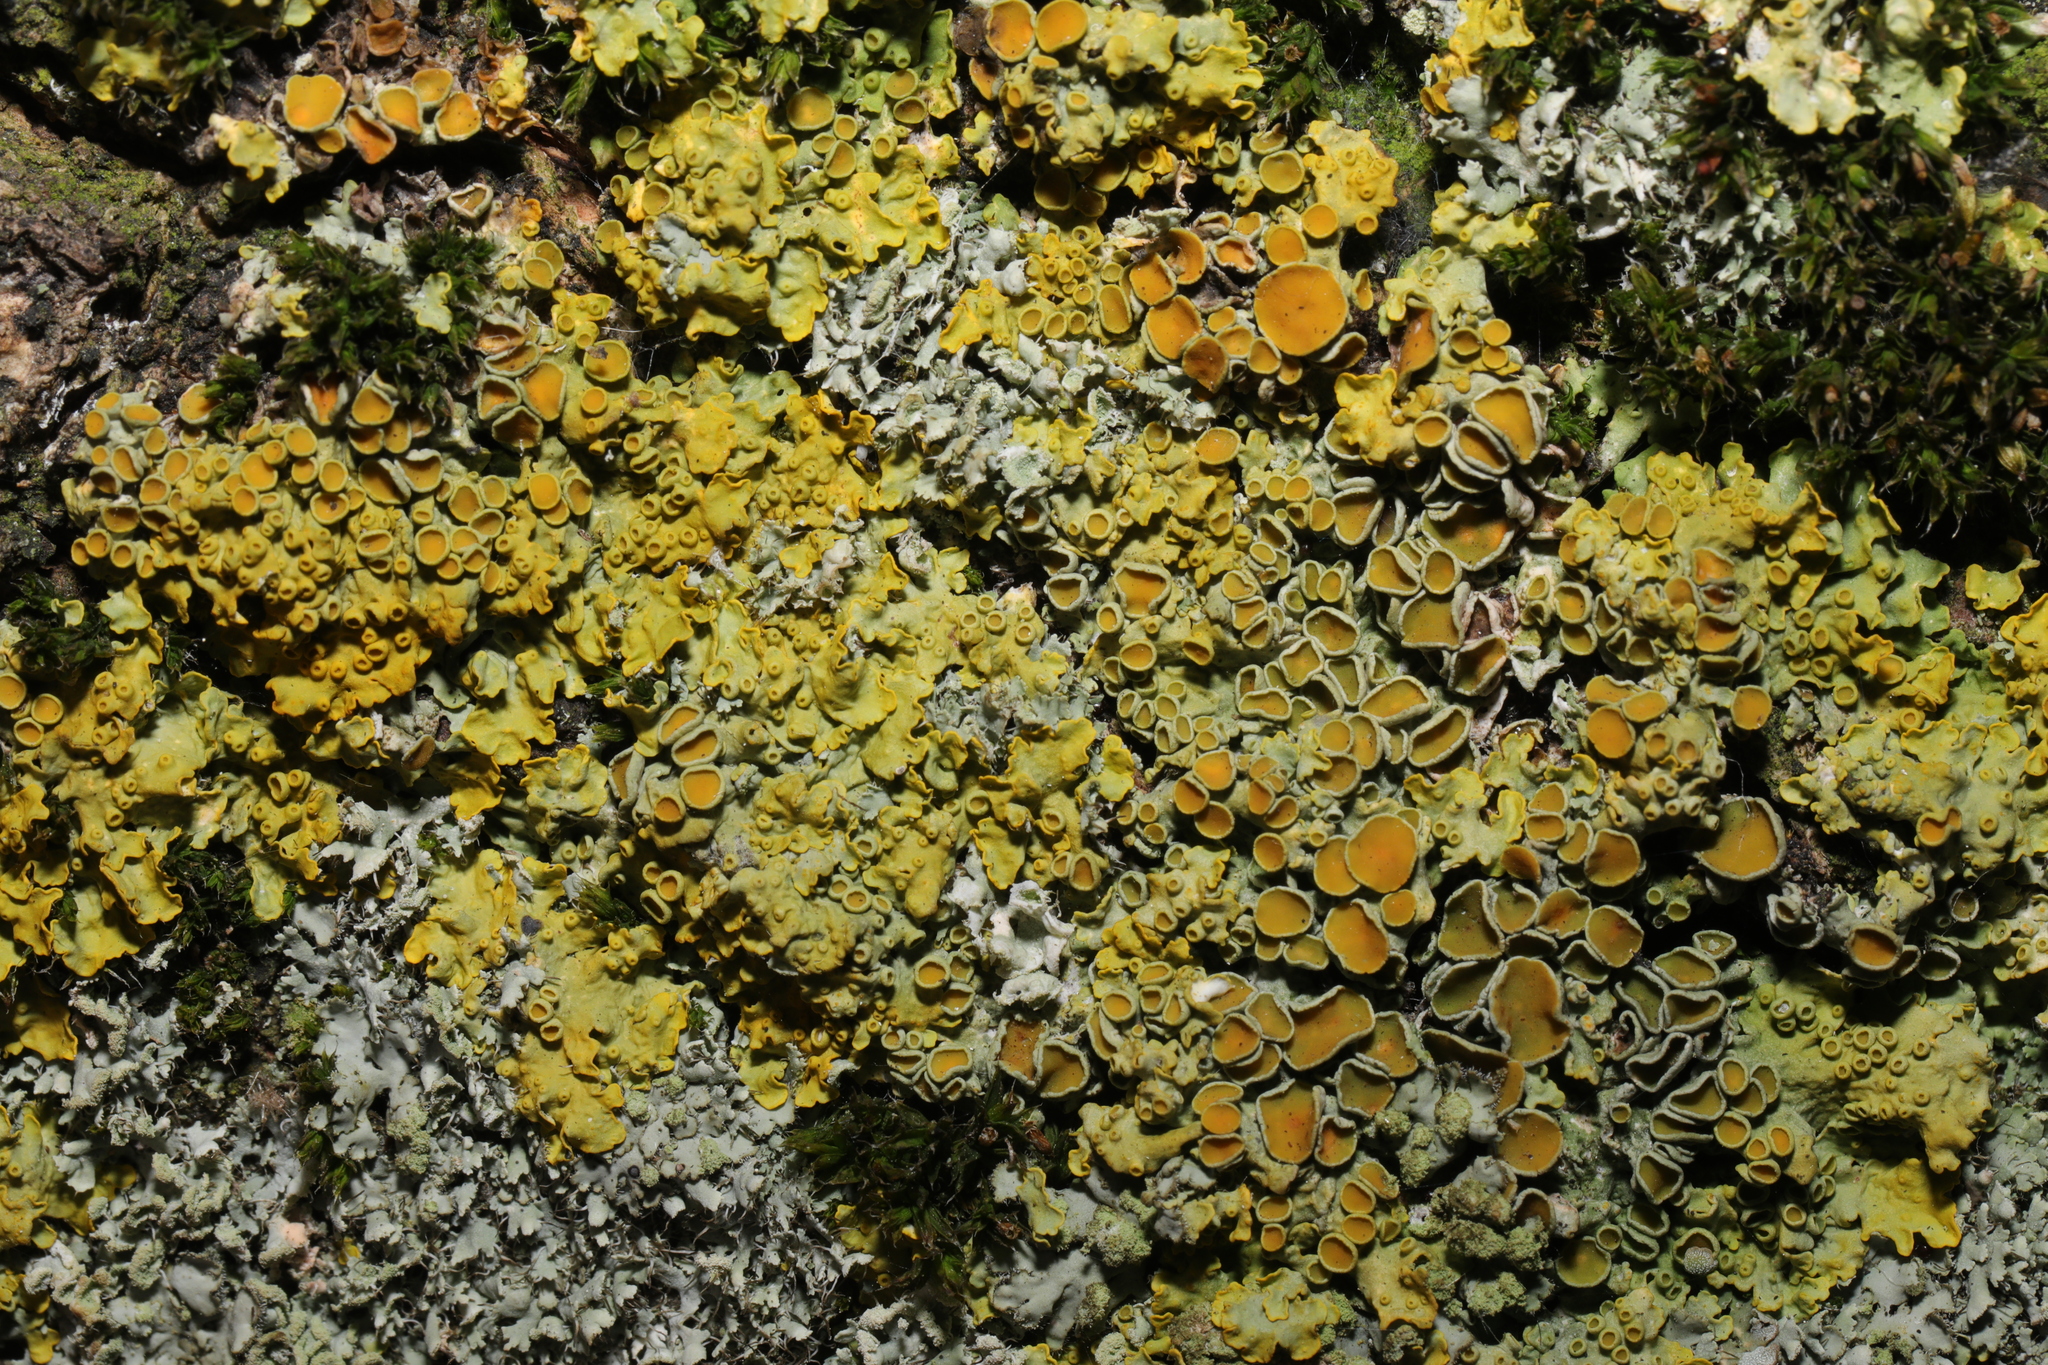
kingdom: Fungi
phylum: Ascomycota
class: Lecanoromycetes
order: Teloschistales
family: Teloschistaceae
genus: Xanthoria
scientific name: Xanthoria parietina
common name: Common orange lichen
